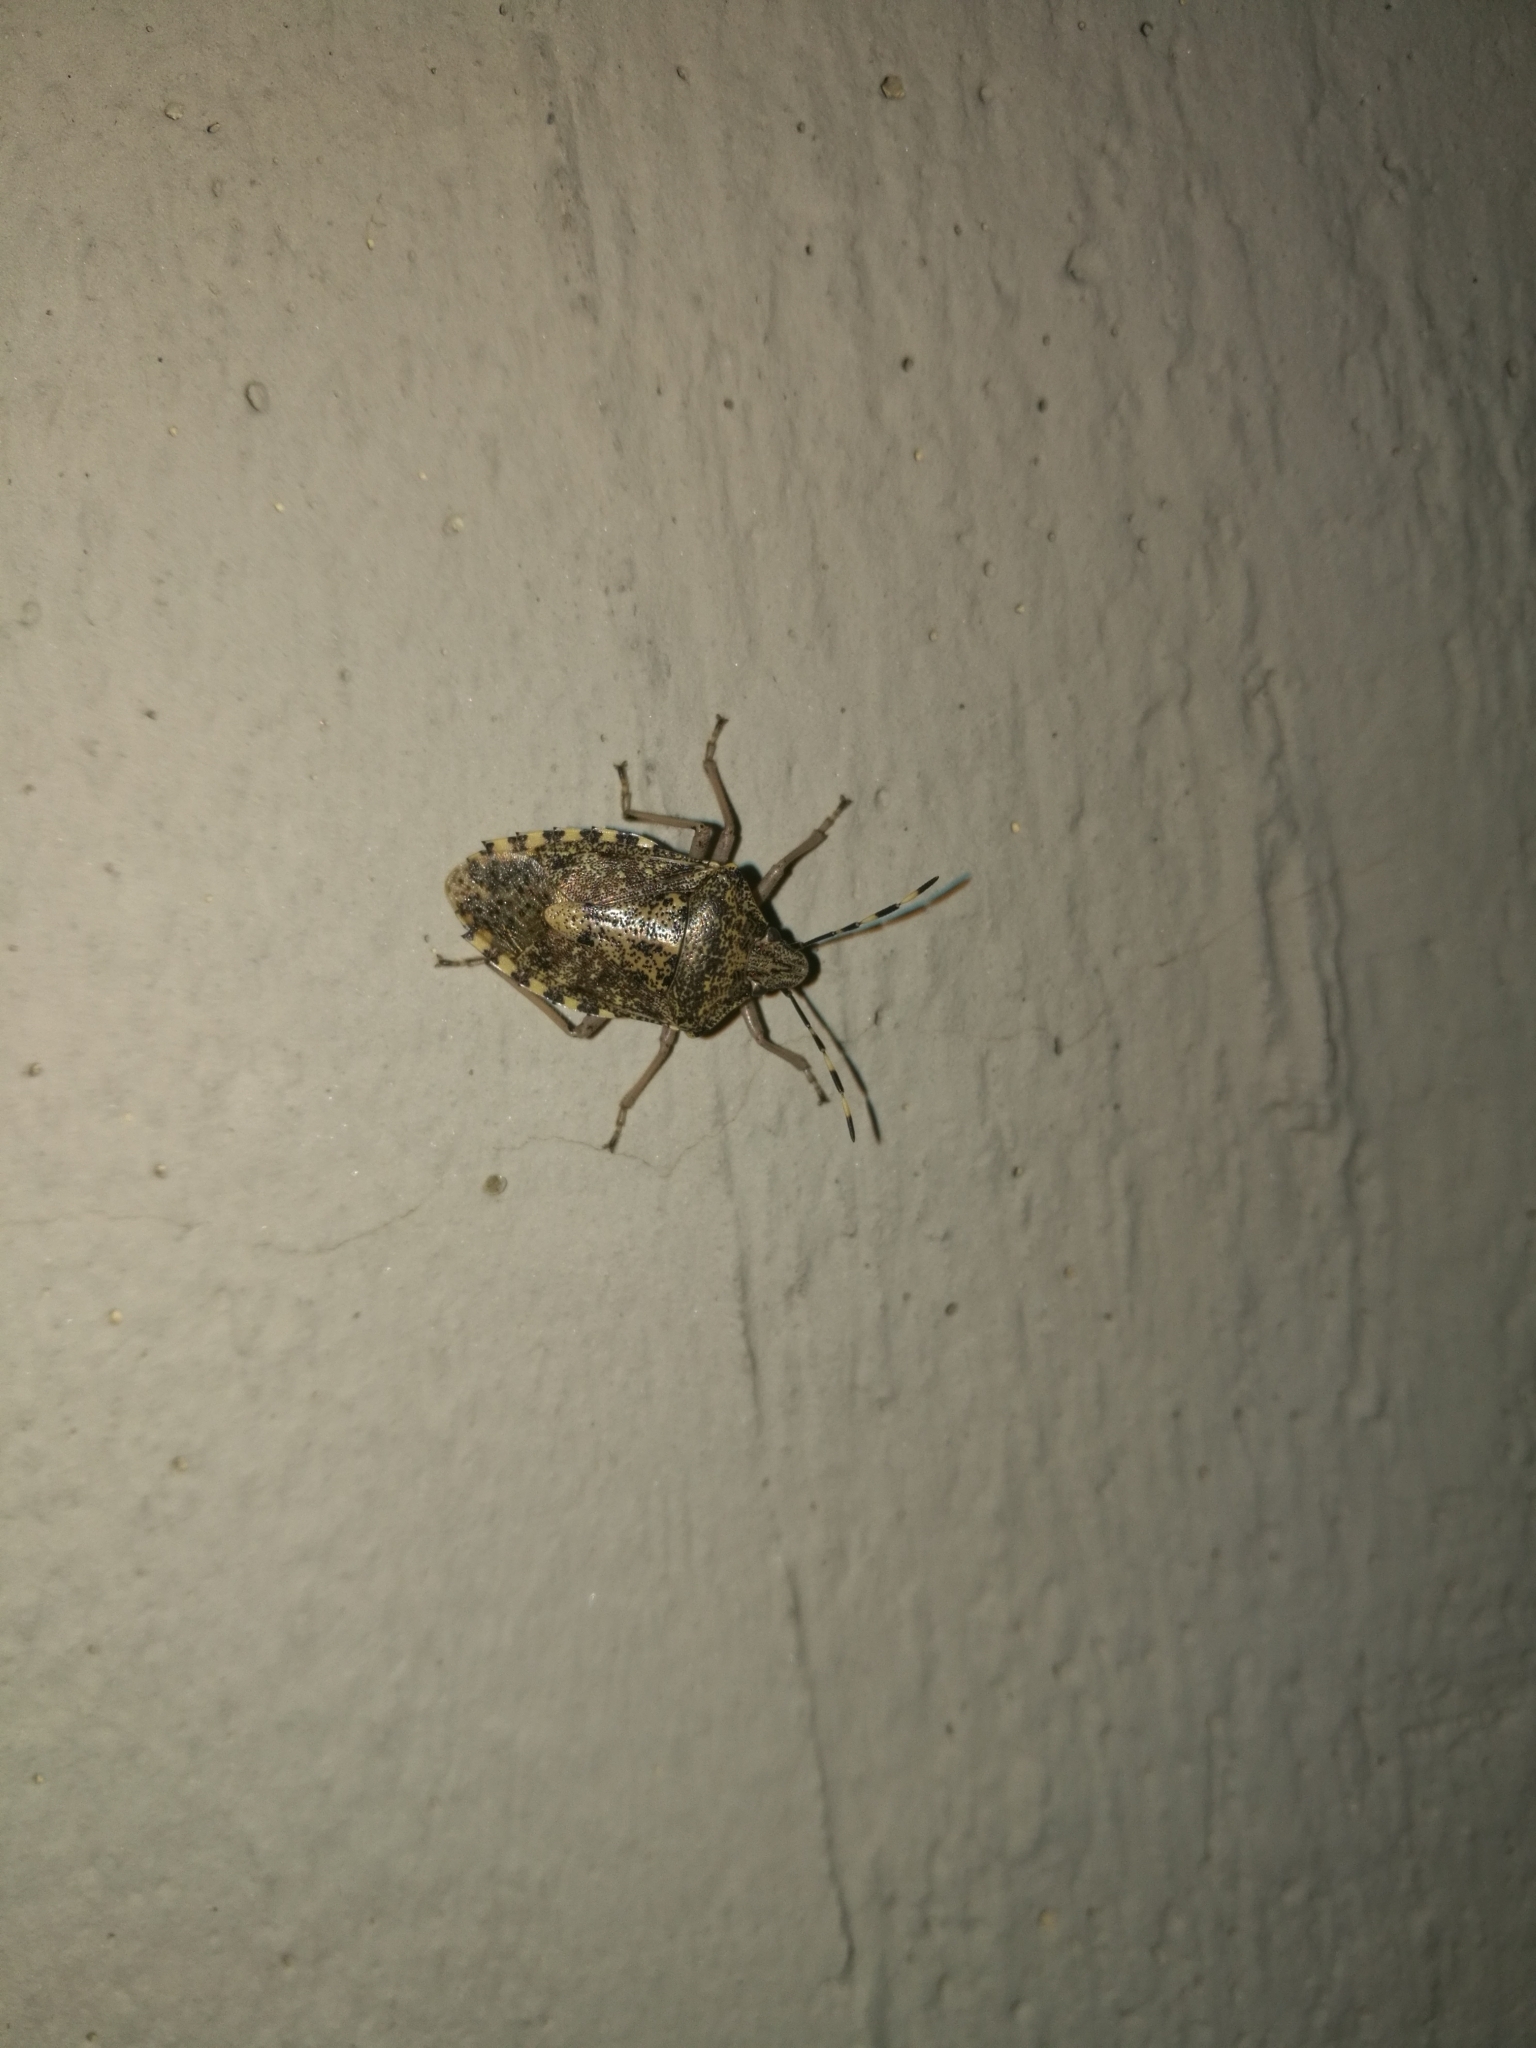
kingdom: Animalia
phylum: Arthropoda
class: Insecta
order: Hemiptera
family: Pentatomidae
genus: Rhaphigaster
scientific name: Rhaphigaster nebulosa
